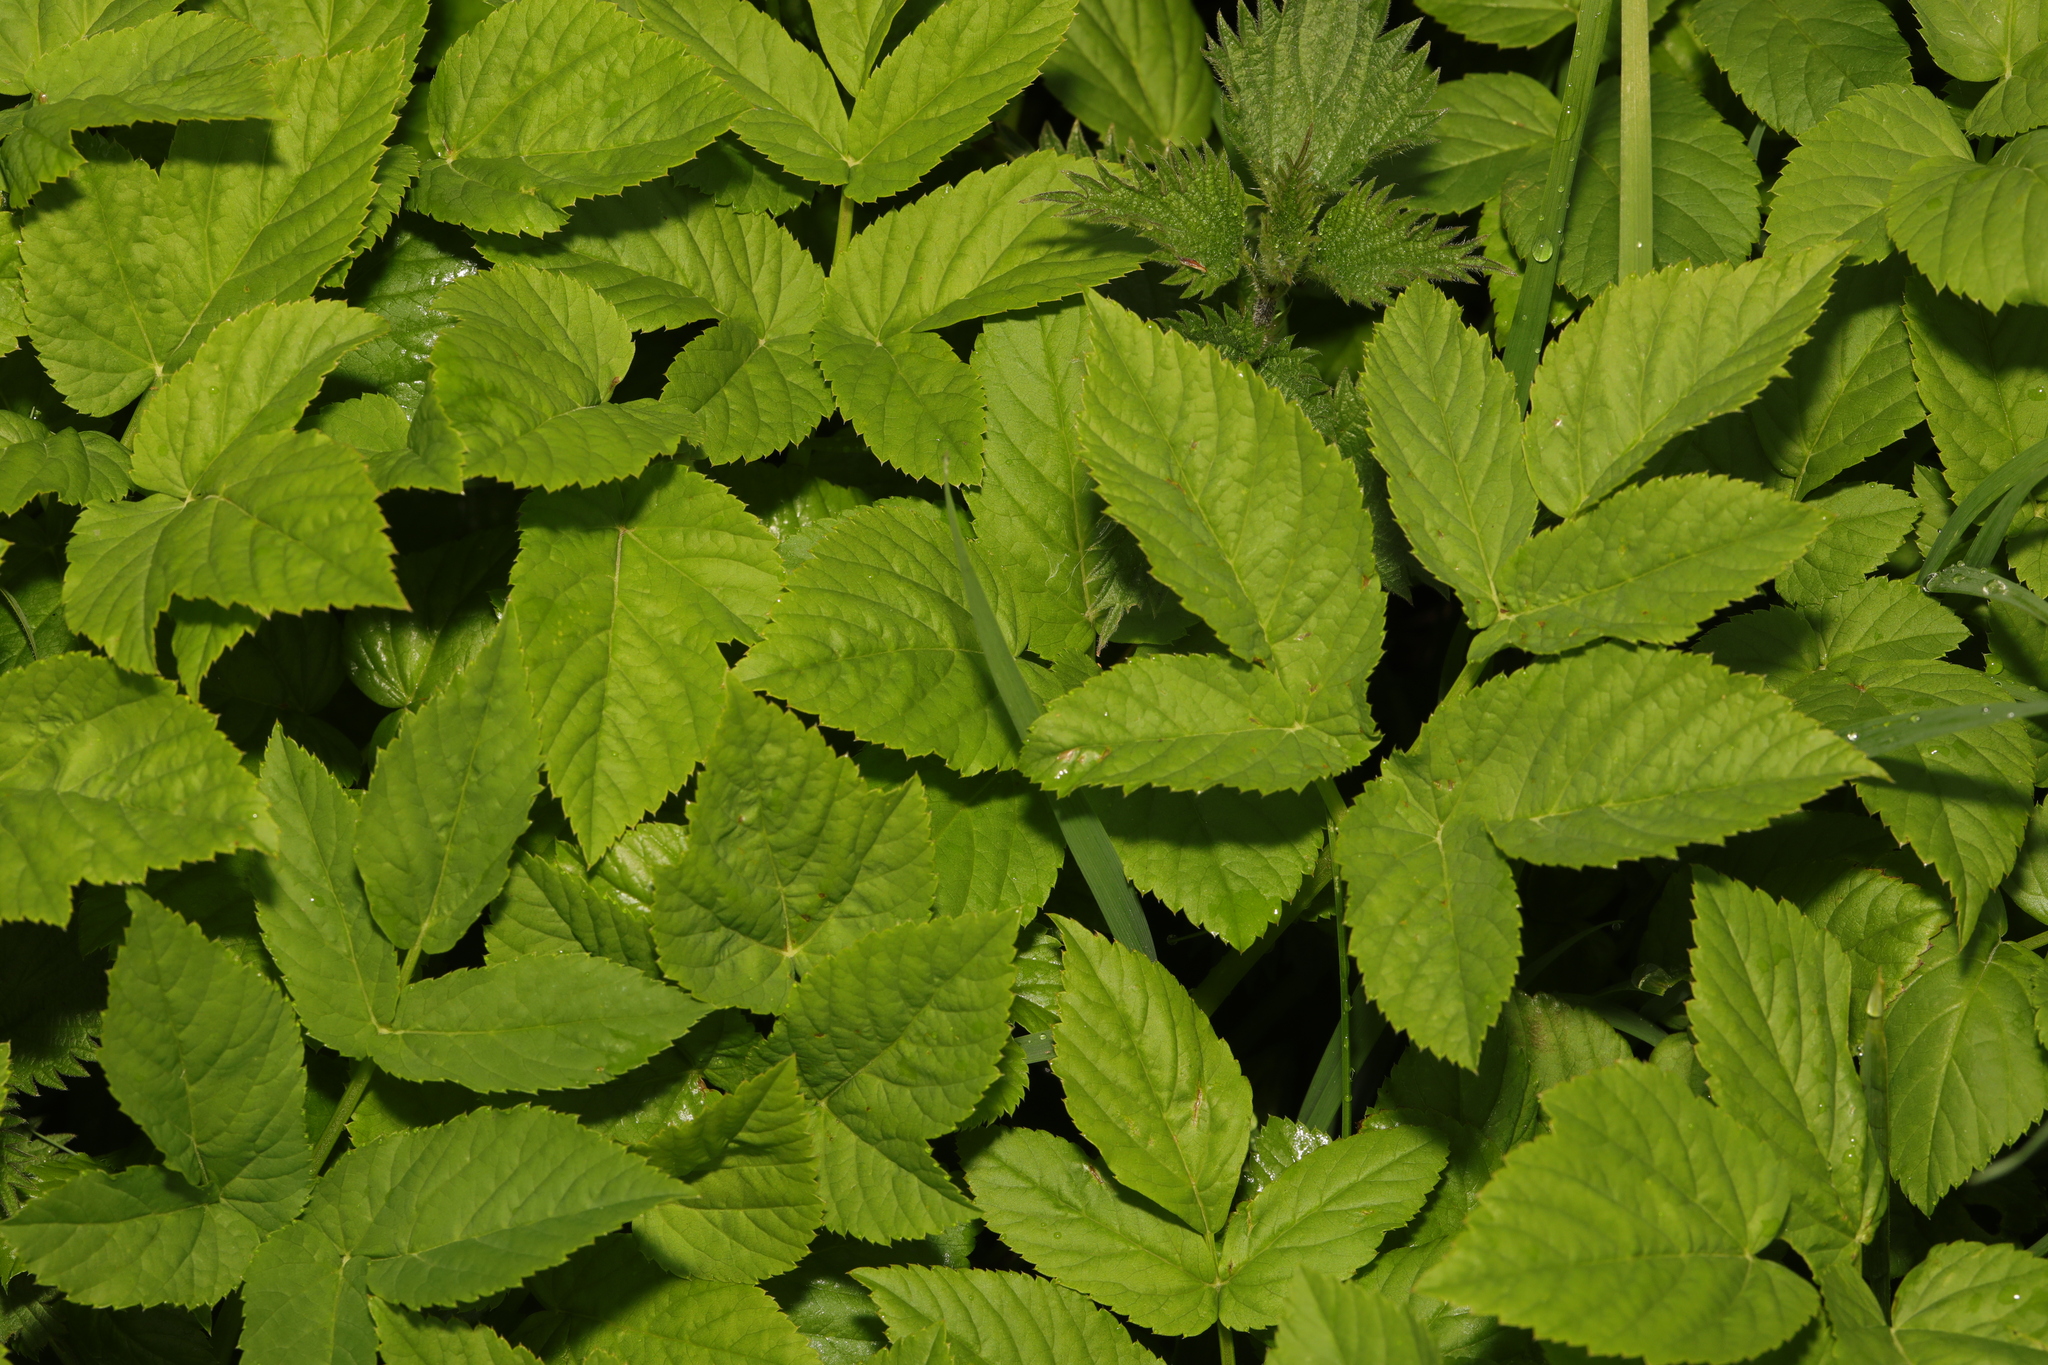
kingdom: Plantae
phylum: Tracheophyta
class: Magnoliopsida
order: Apiales
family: Apiaceae
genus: Aegopodium
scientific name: Aegopodium podagraria
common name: Ground-elder
